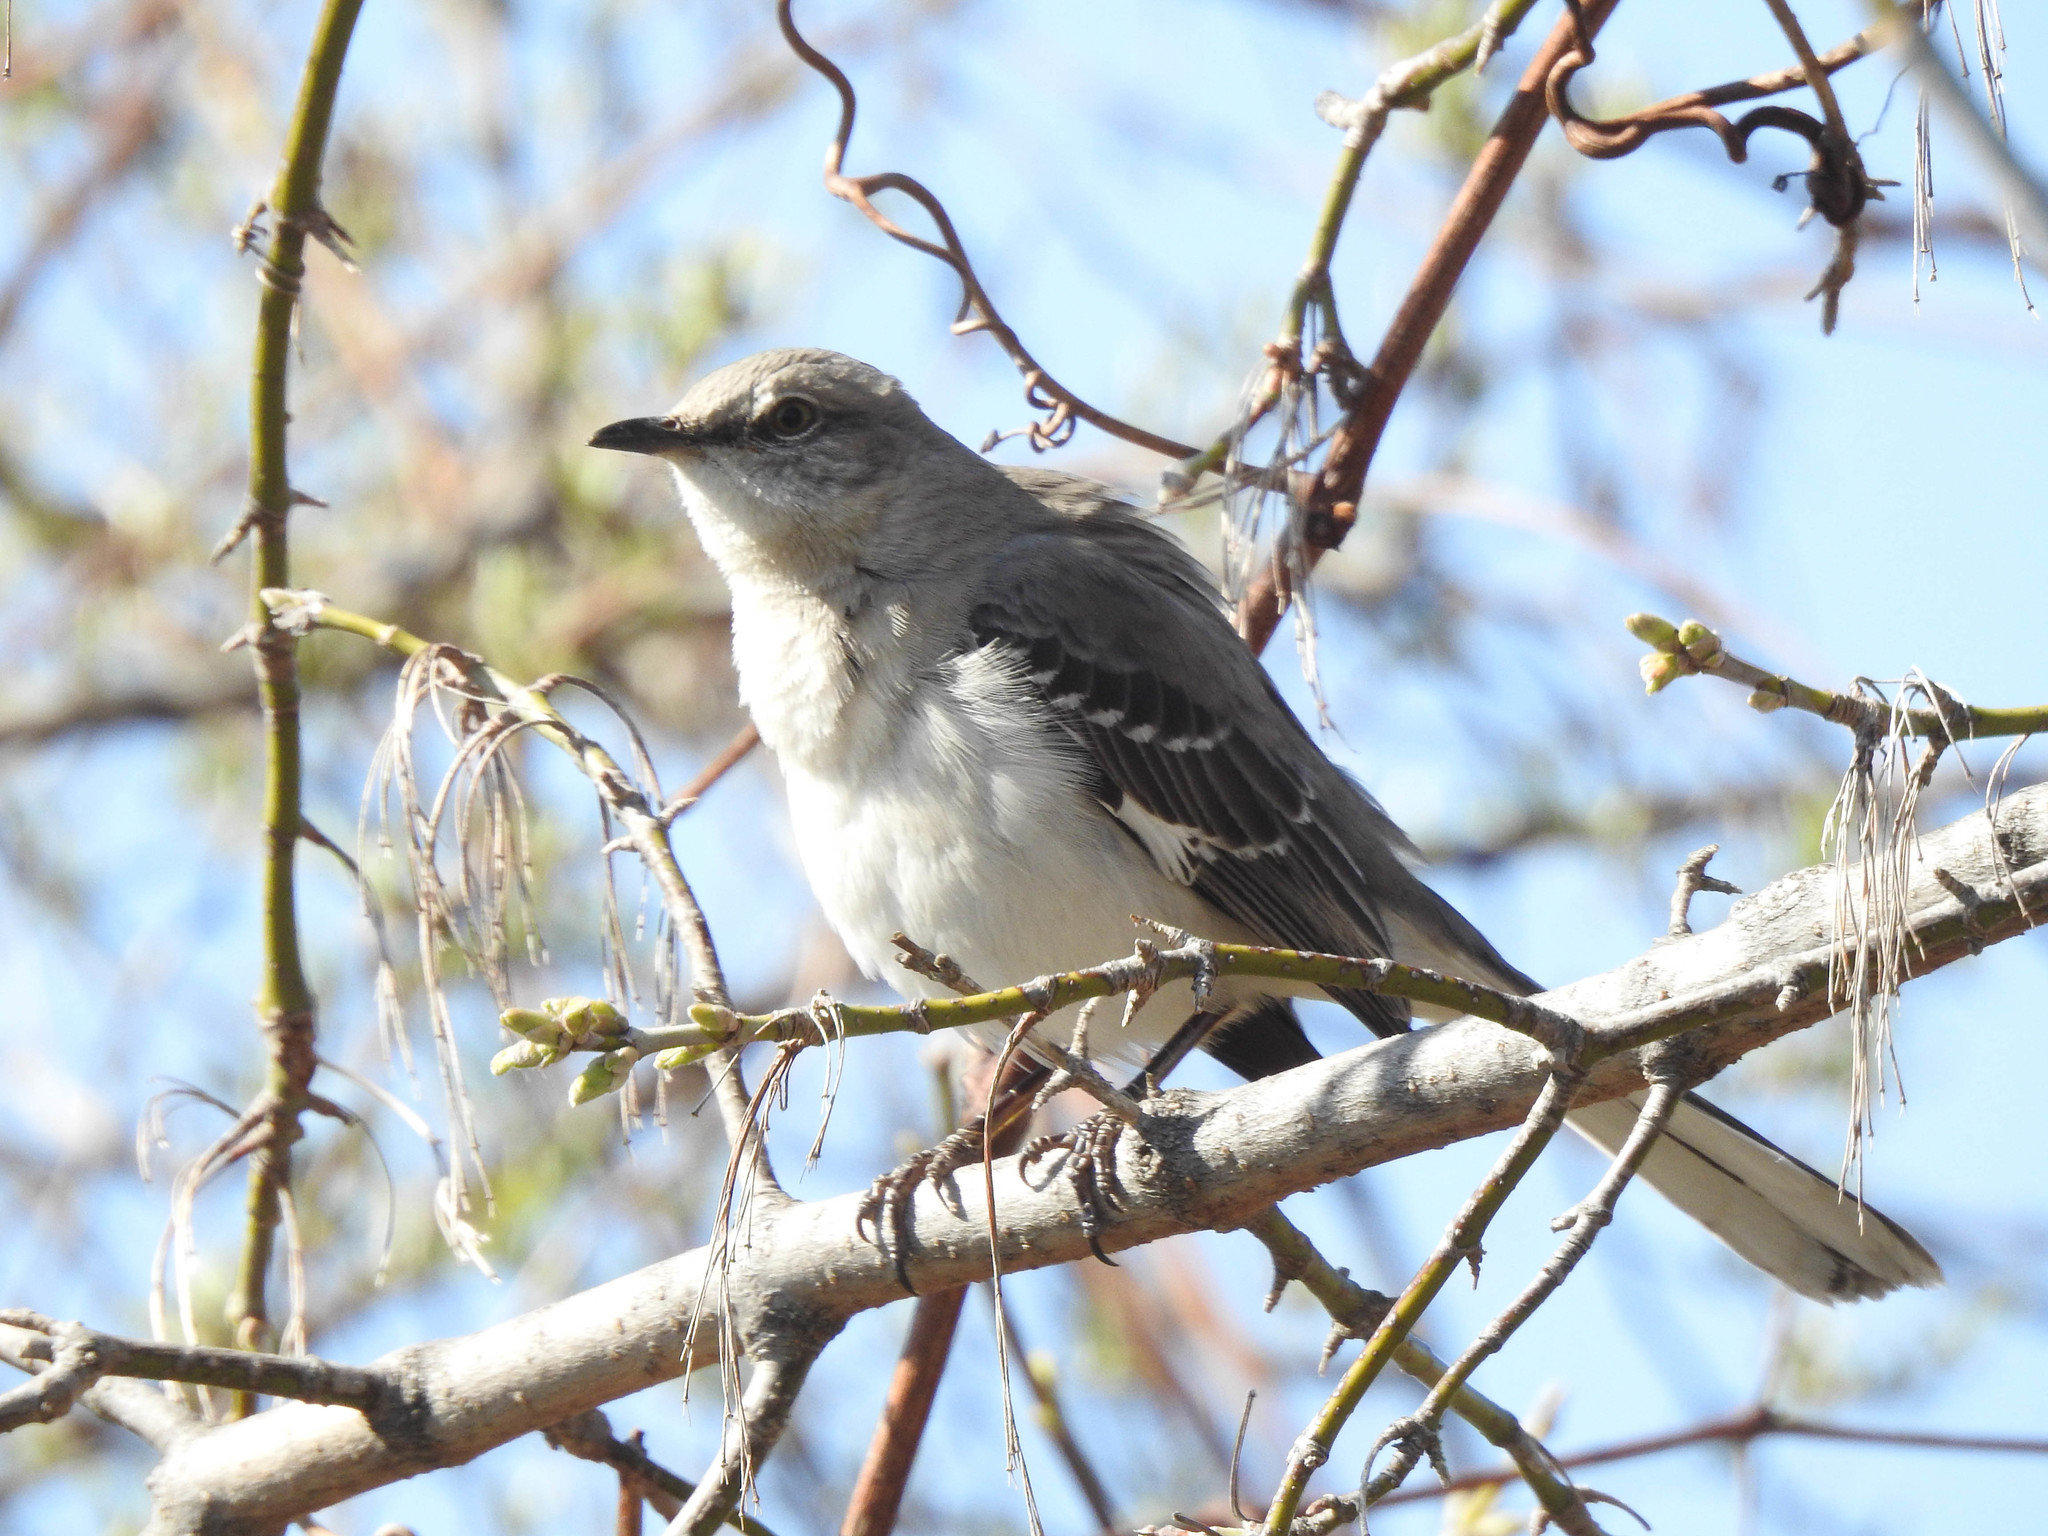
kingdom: Animalia
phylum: Chordata
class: Aves
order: Passeriformes
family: Mimidae
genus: Mimus
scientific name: Mimus polyglottos
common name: Northern mockingbird
